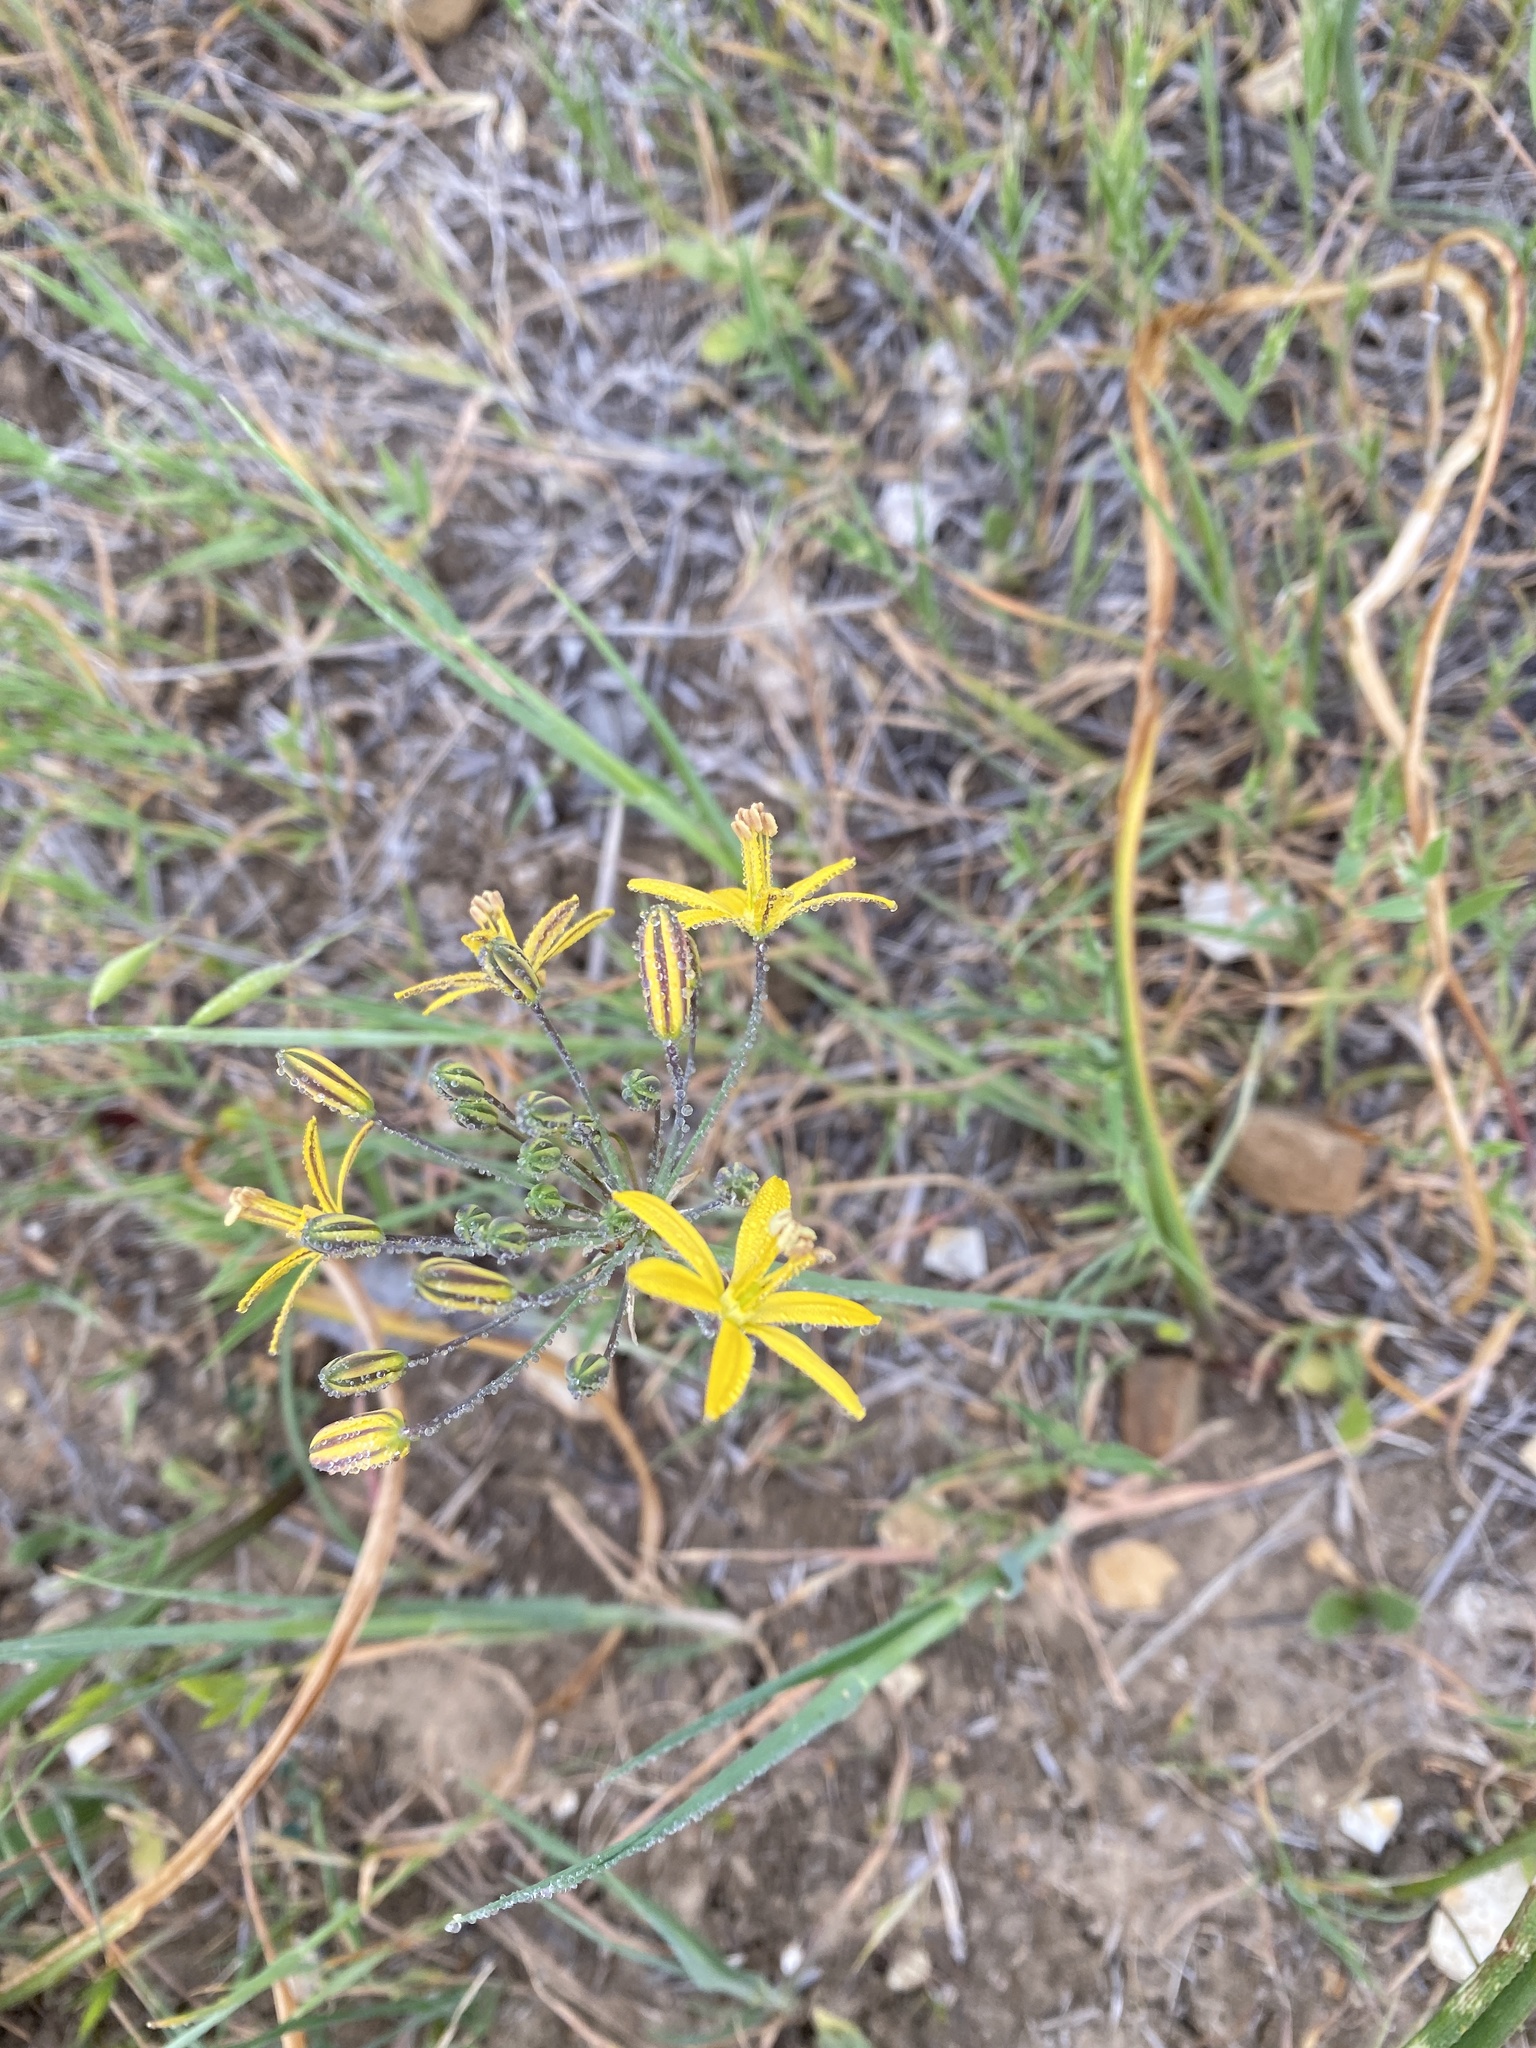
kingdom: Plantae
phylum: Tracheophyta
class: Liliopsida
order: Asparagales
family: Asparagaceae
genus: Bloomeria
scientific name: Bloomeria crocea
